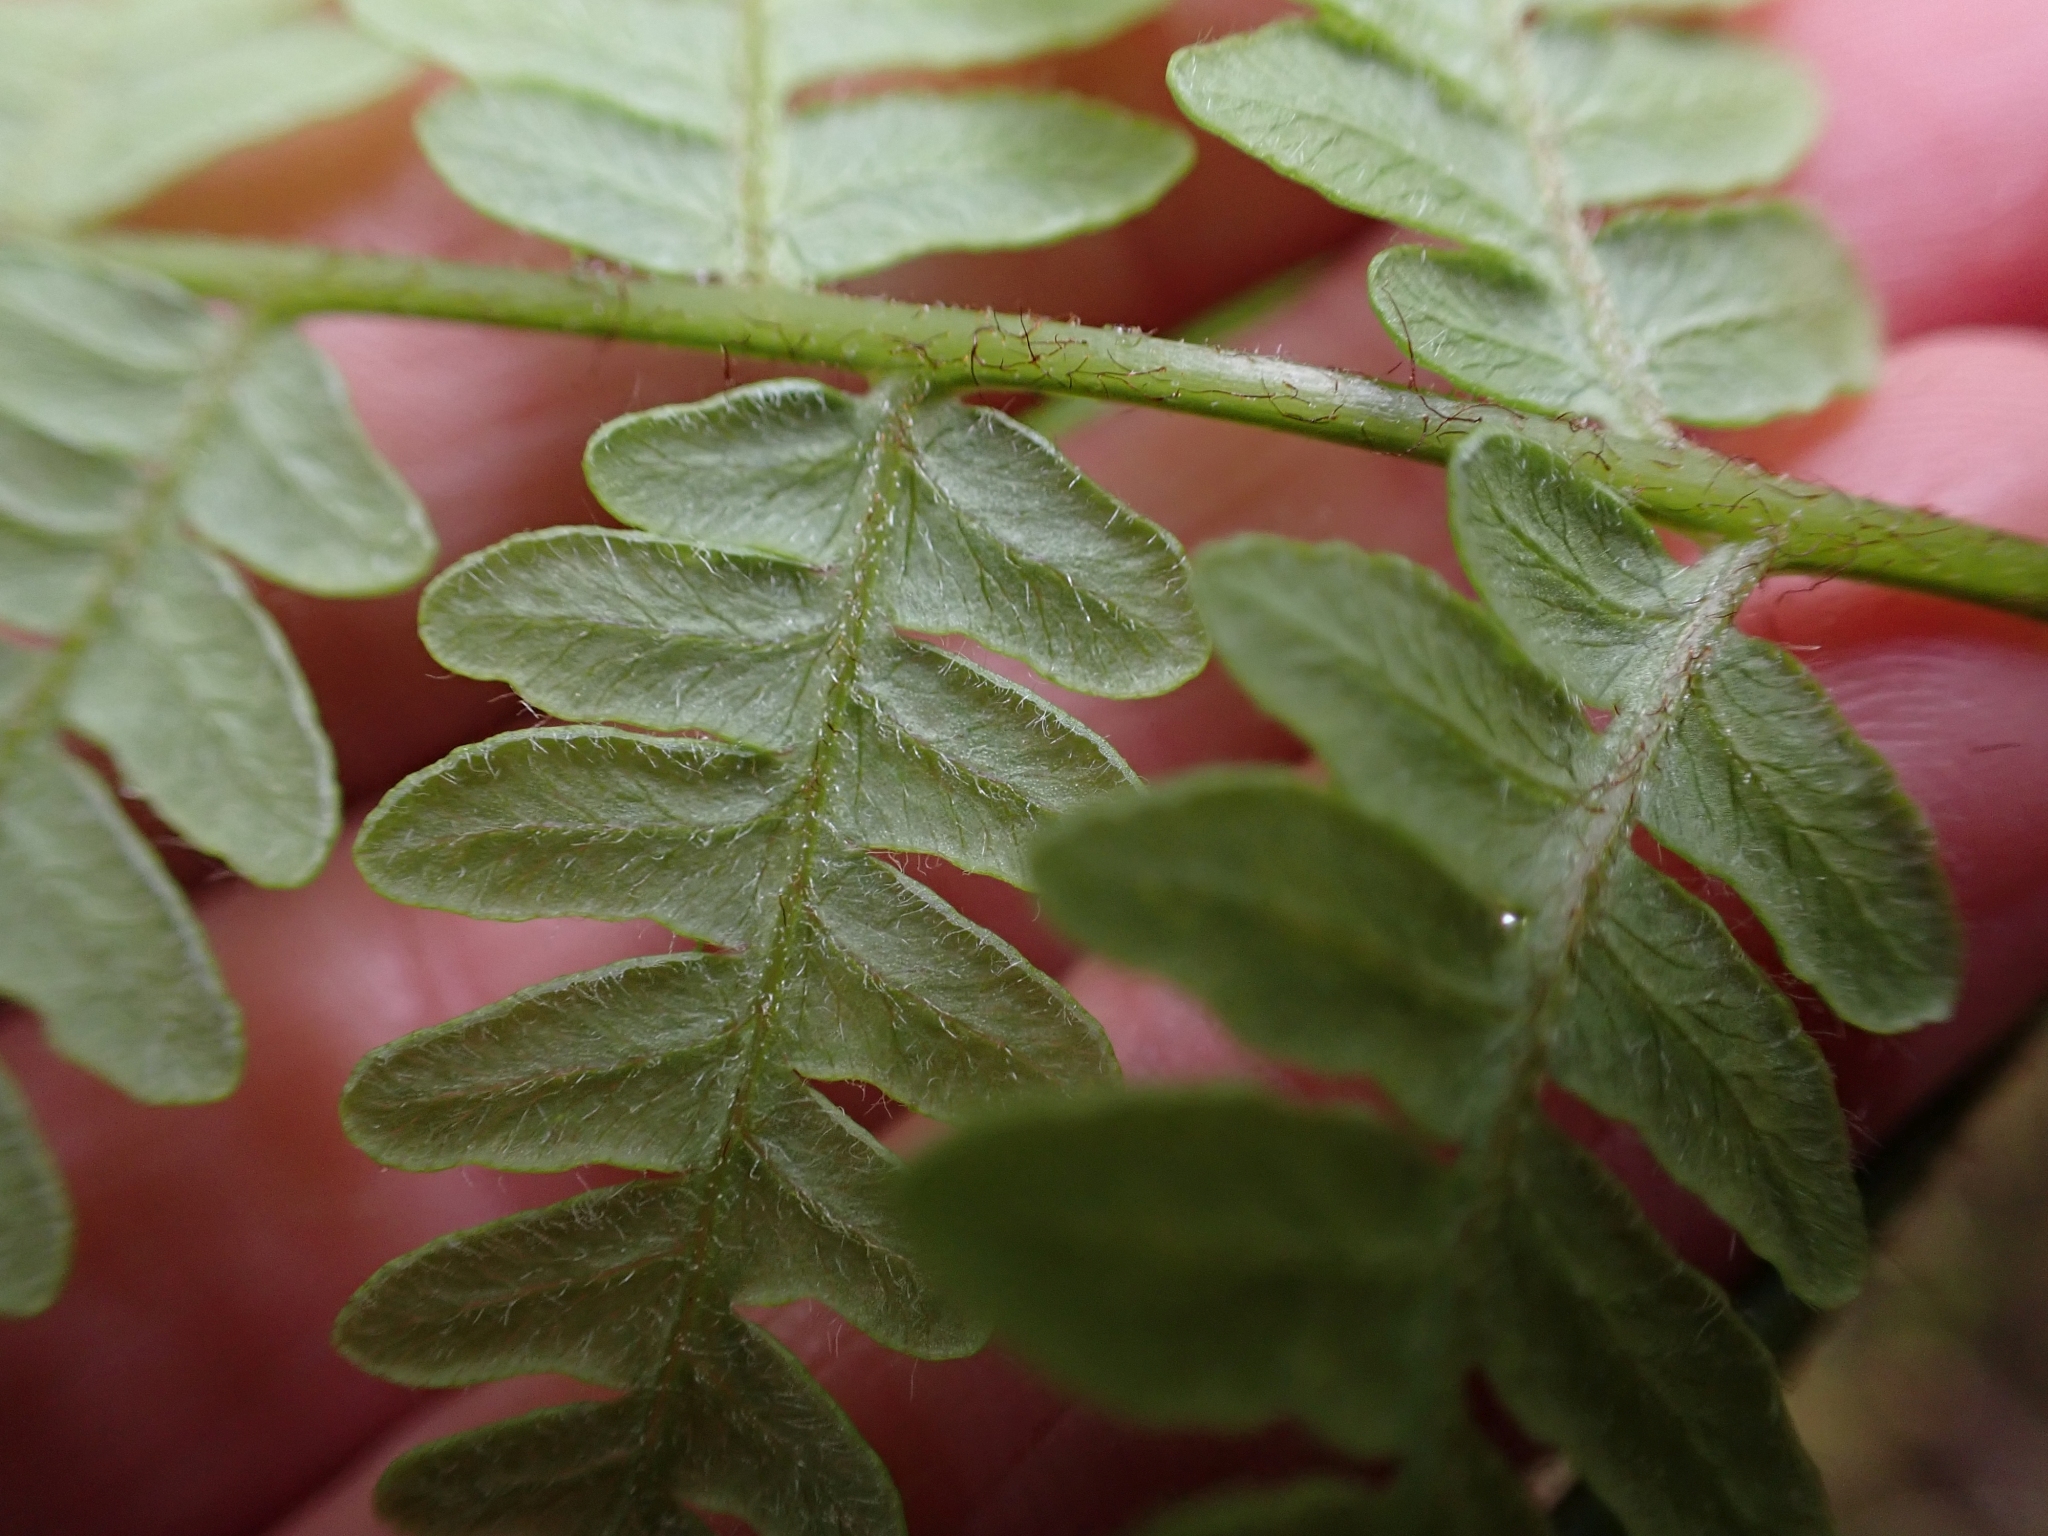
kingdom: Plantae
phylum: Tracheophyta
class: Polypodiopsida
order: Polypodiales
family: Dennstaedtiaceae
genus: Pteridium
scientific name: Pteridium aquilinum
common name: Bracken
